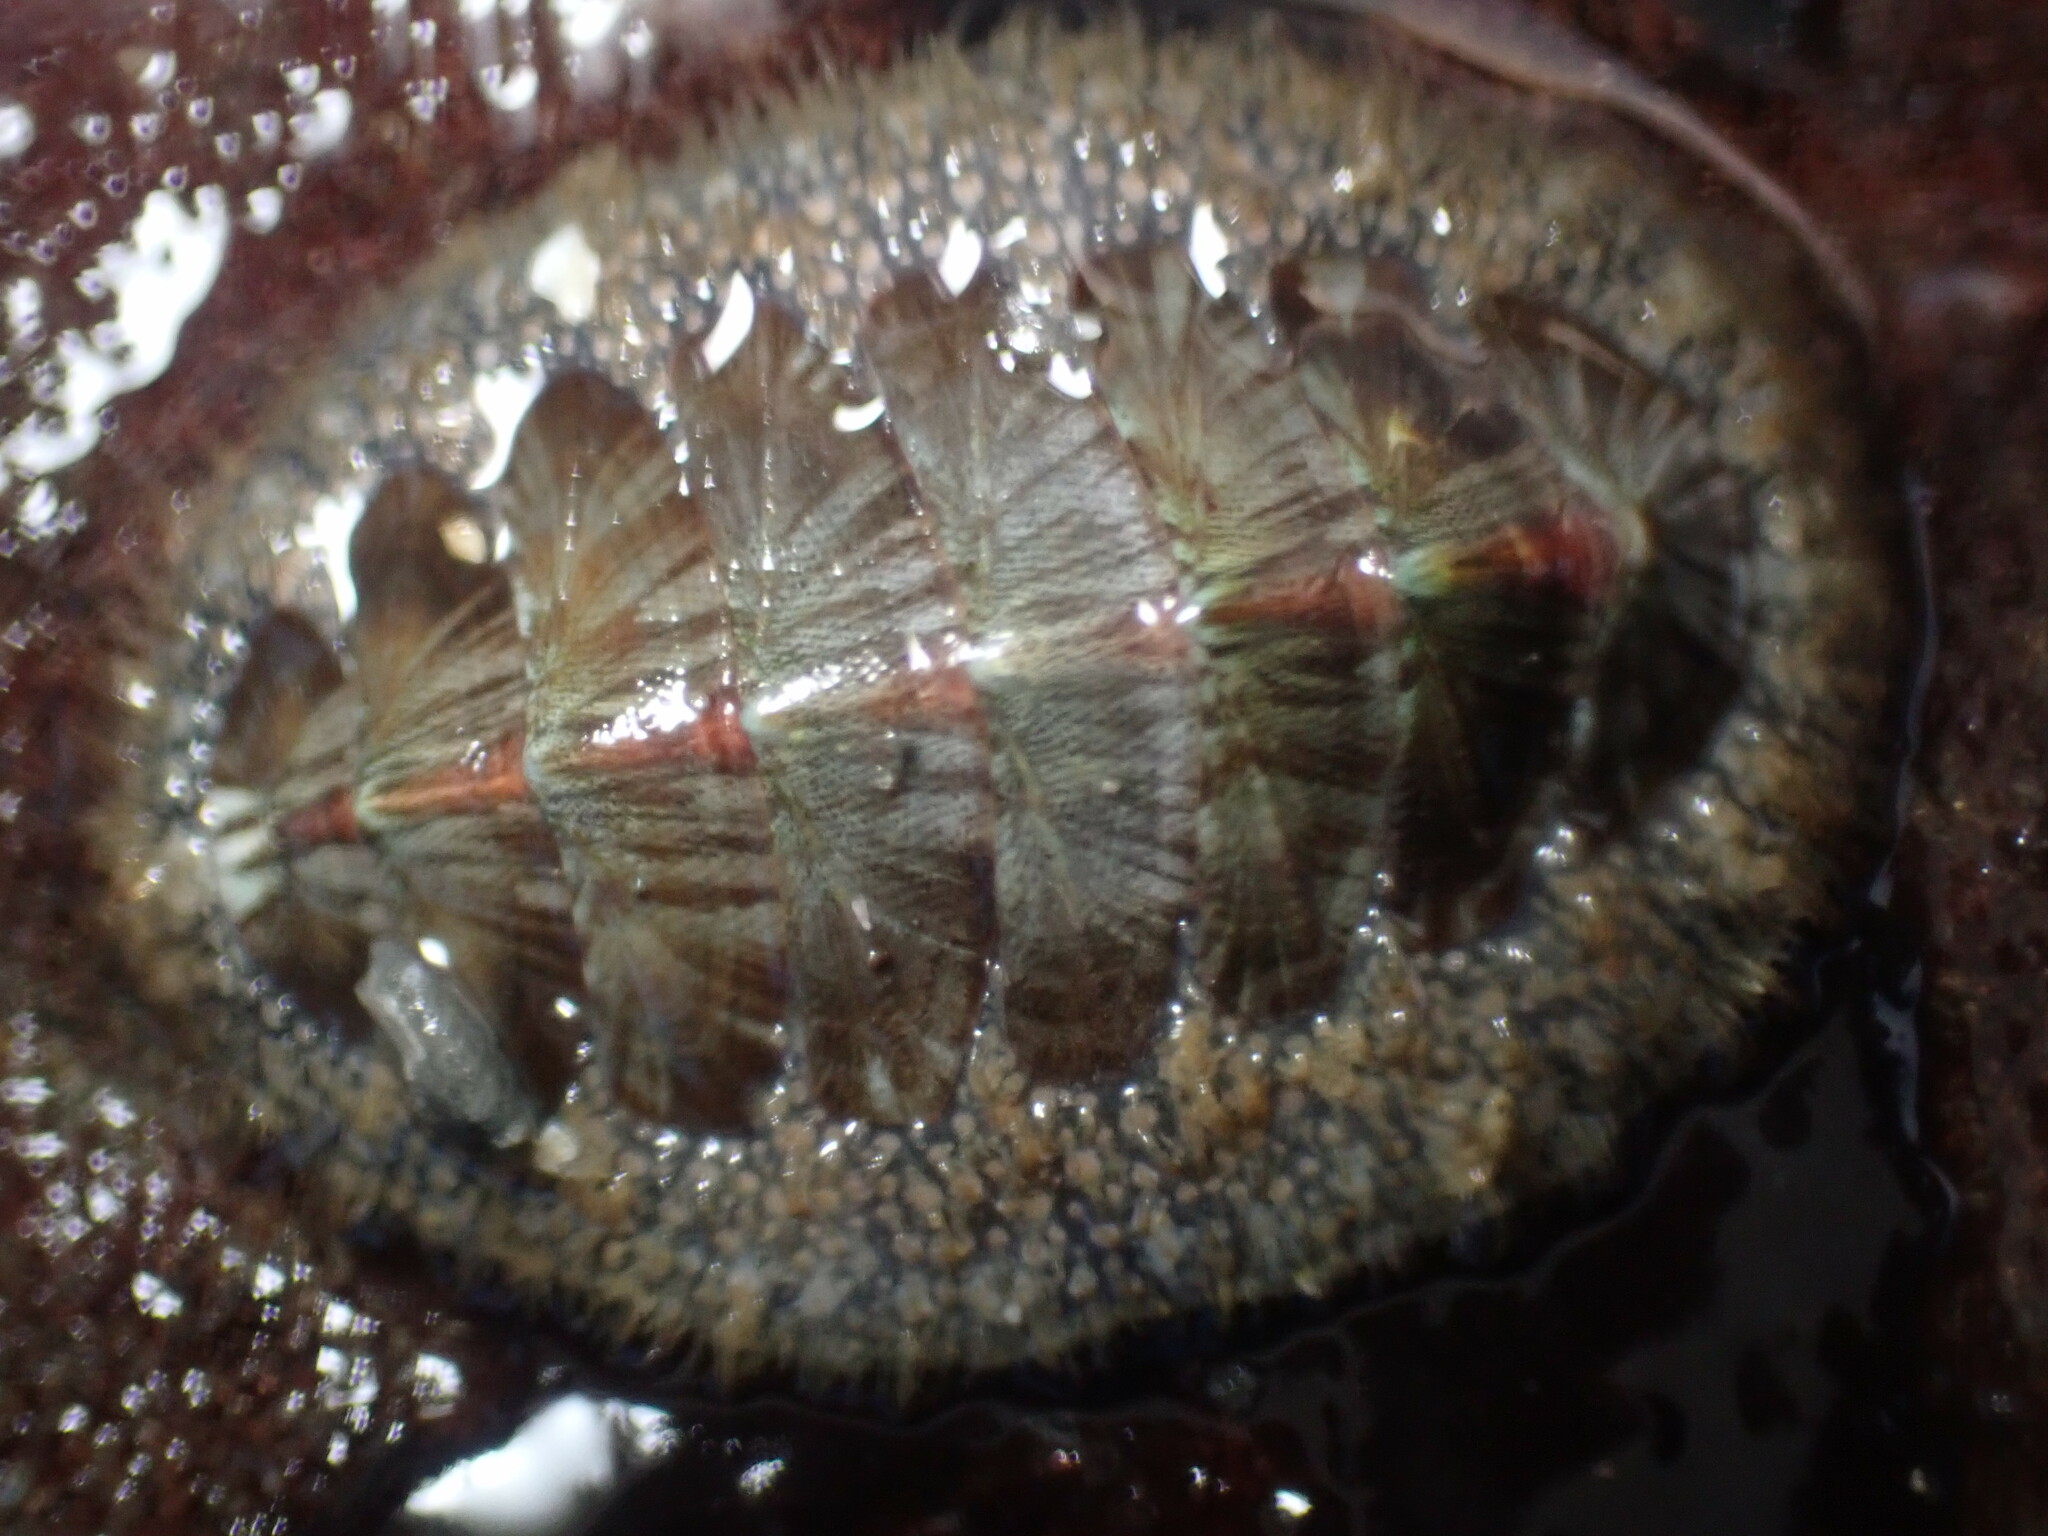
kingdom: Animalia
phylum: Mollusca
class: Polyplacophora
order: Chitonida
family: Mopaliidae
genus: Mopalia
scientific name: Mopalia lignosa
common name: Woody chiton
